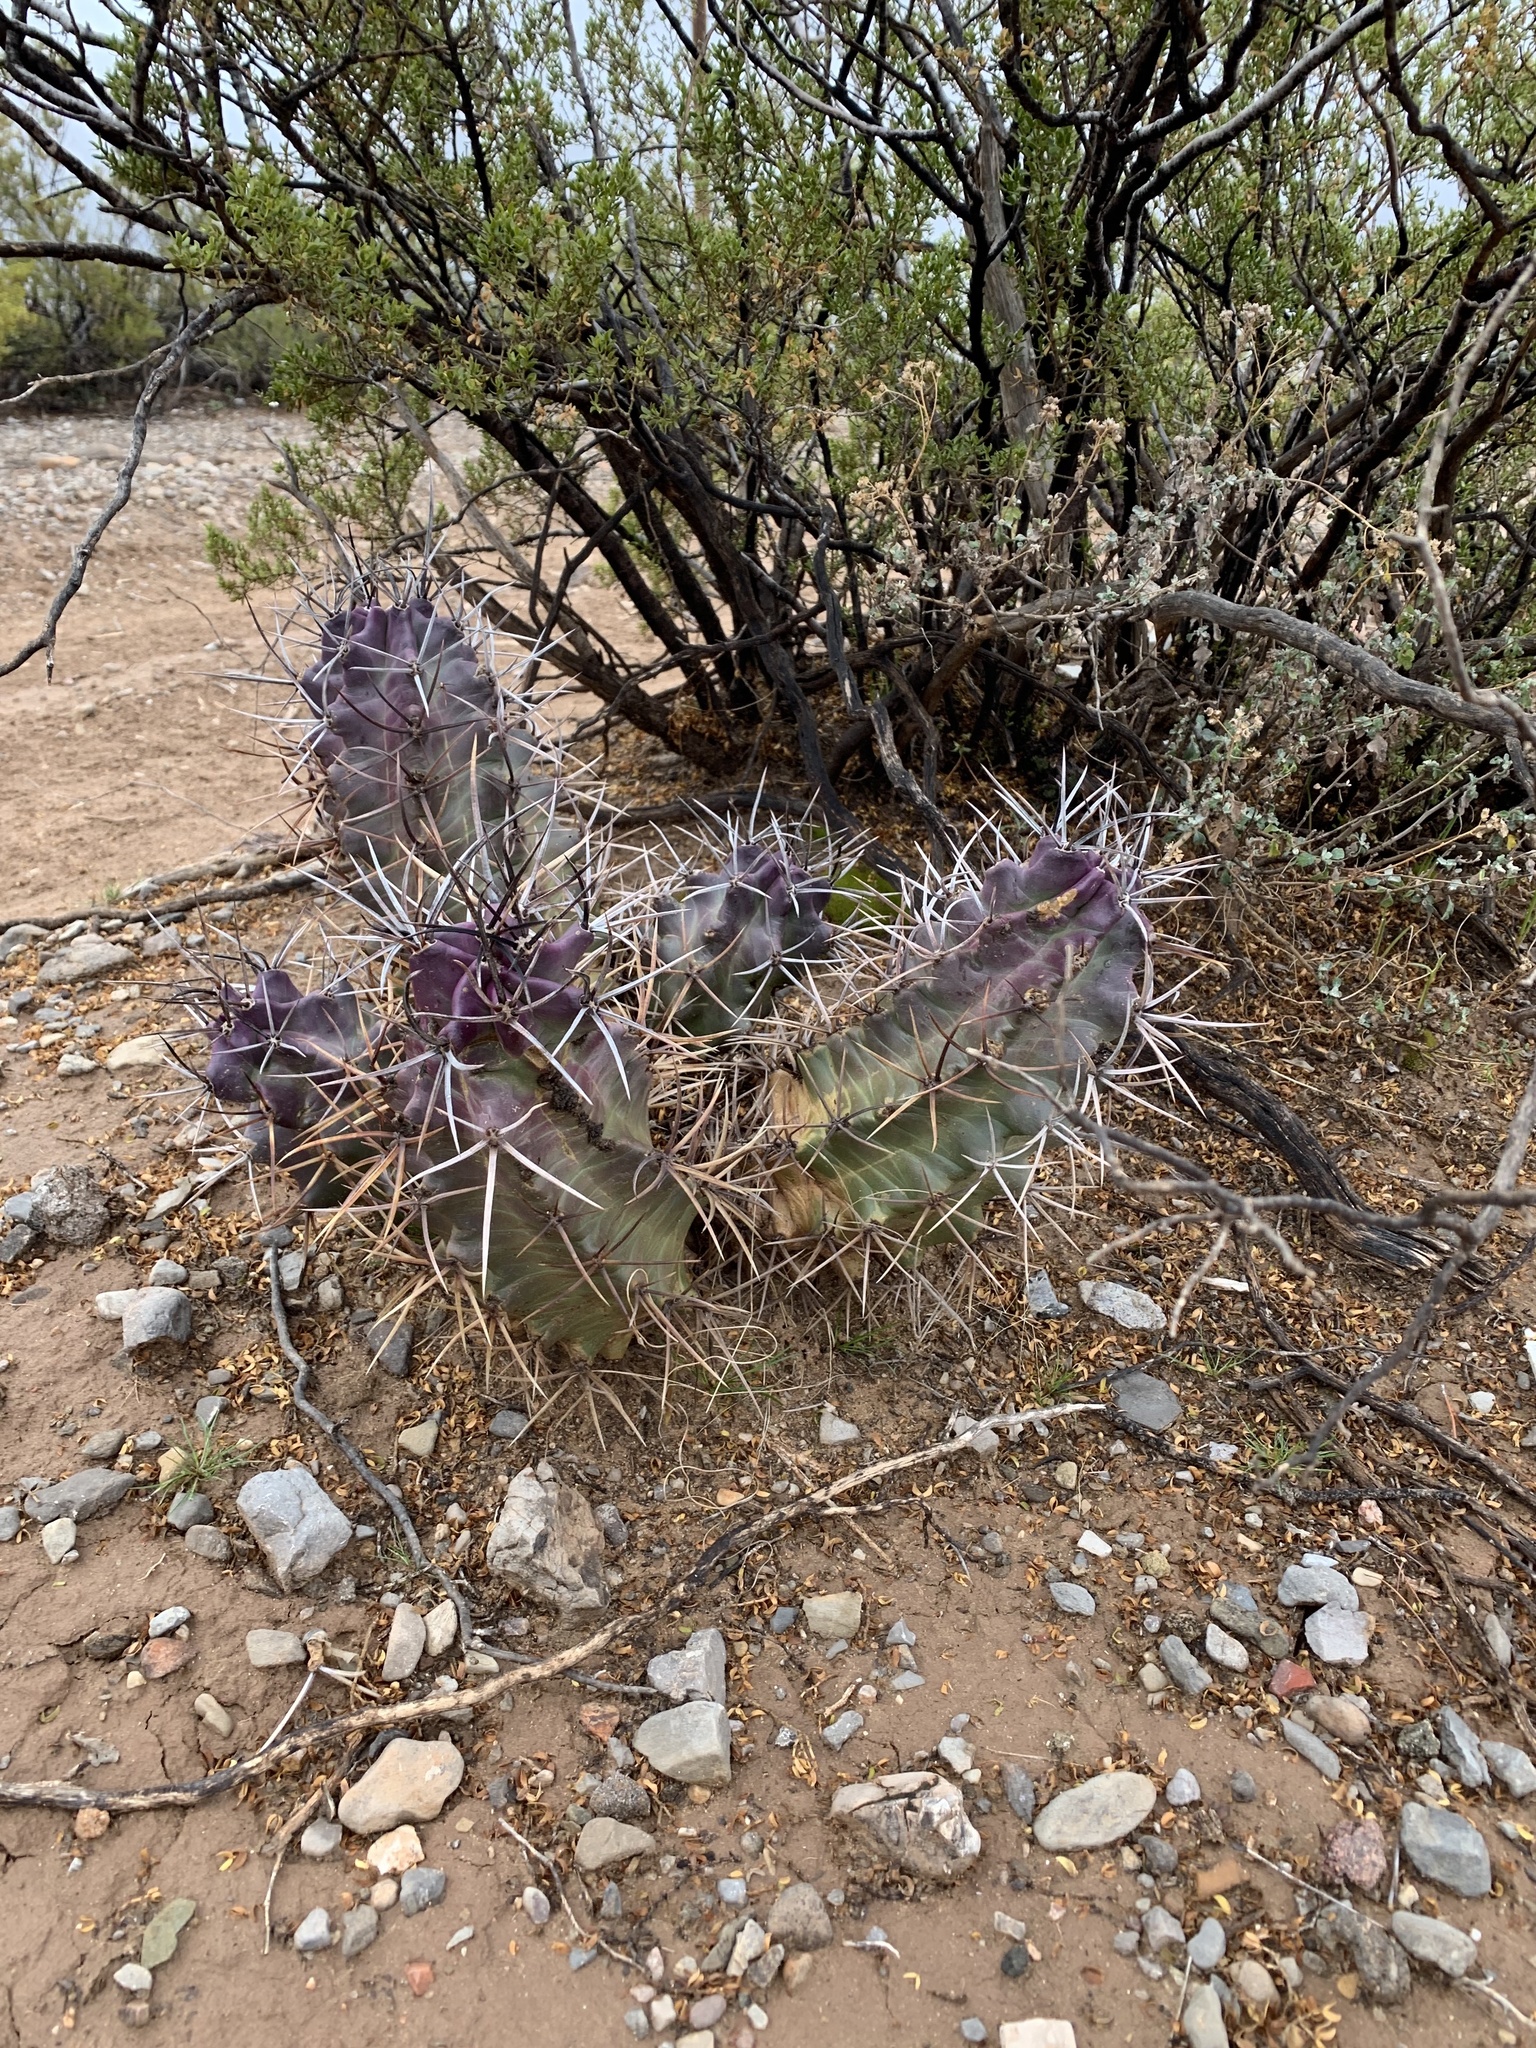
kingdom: Plantae
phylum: Tracheophyta
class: Magnoliopsida
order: Caryophyllales
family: Cactaceae
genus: Echinocereus
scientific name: Echinocereus triglochidiatus
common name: Claretcup hedgehog
